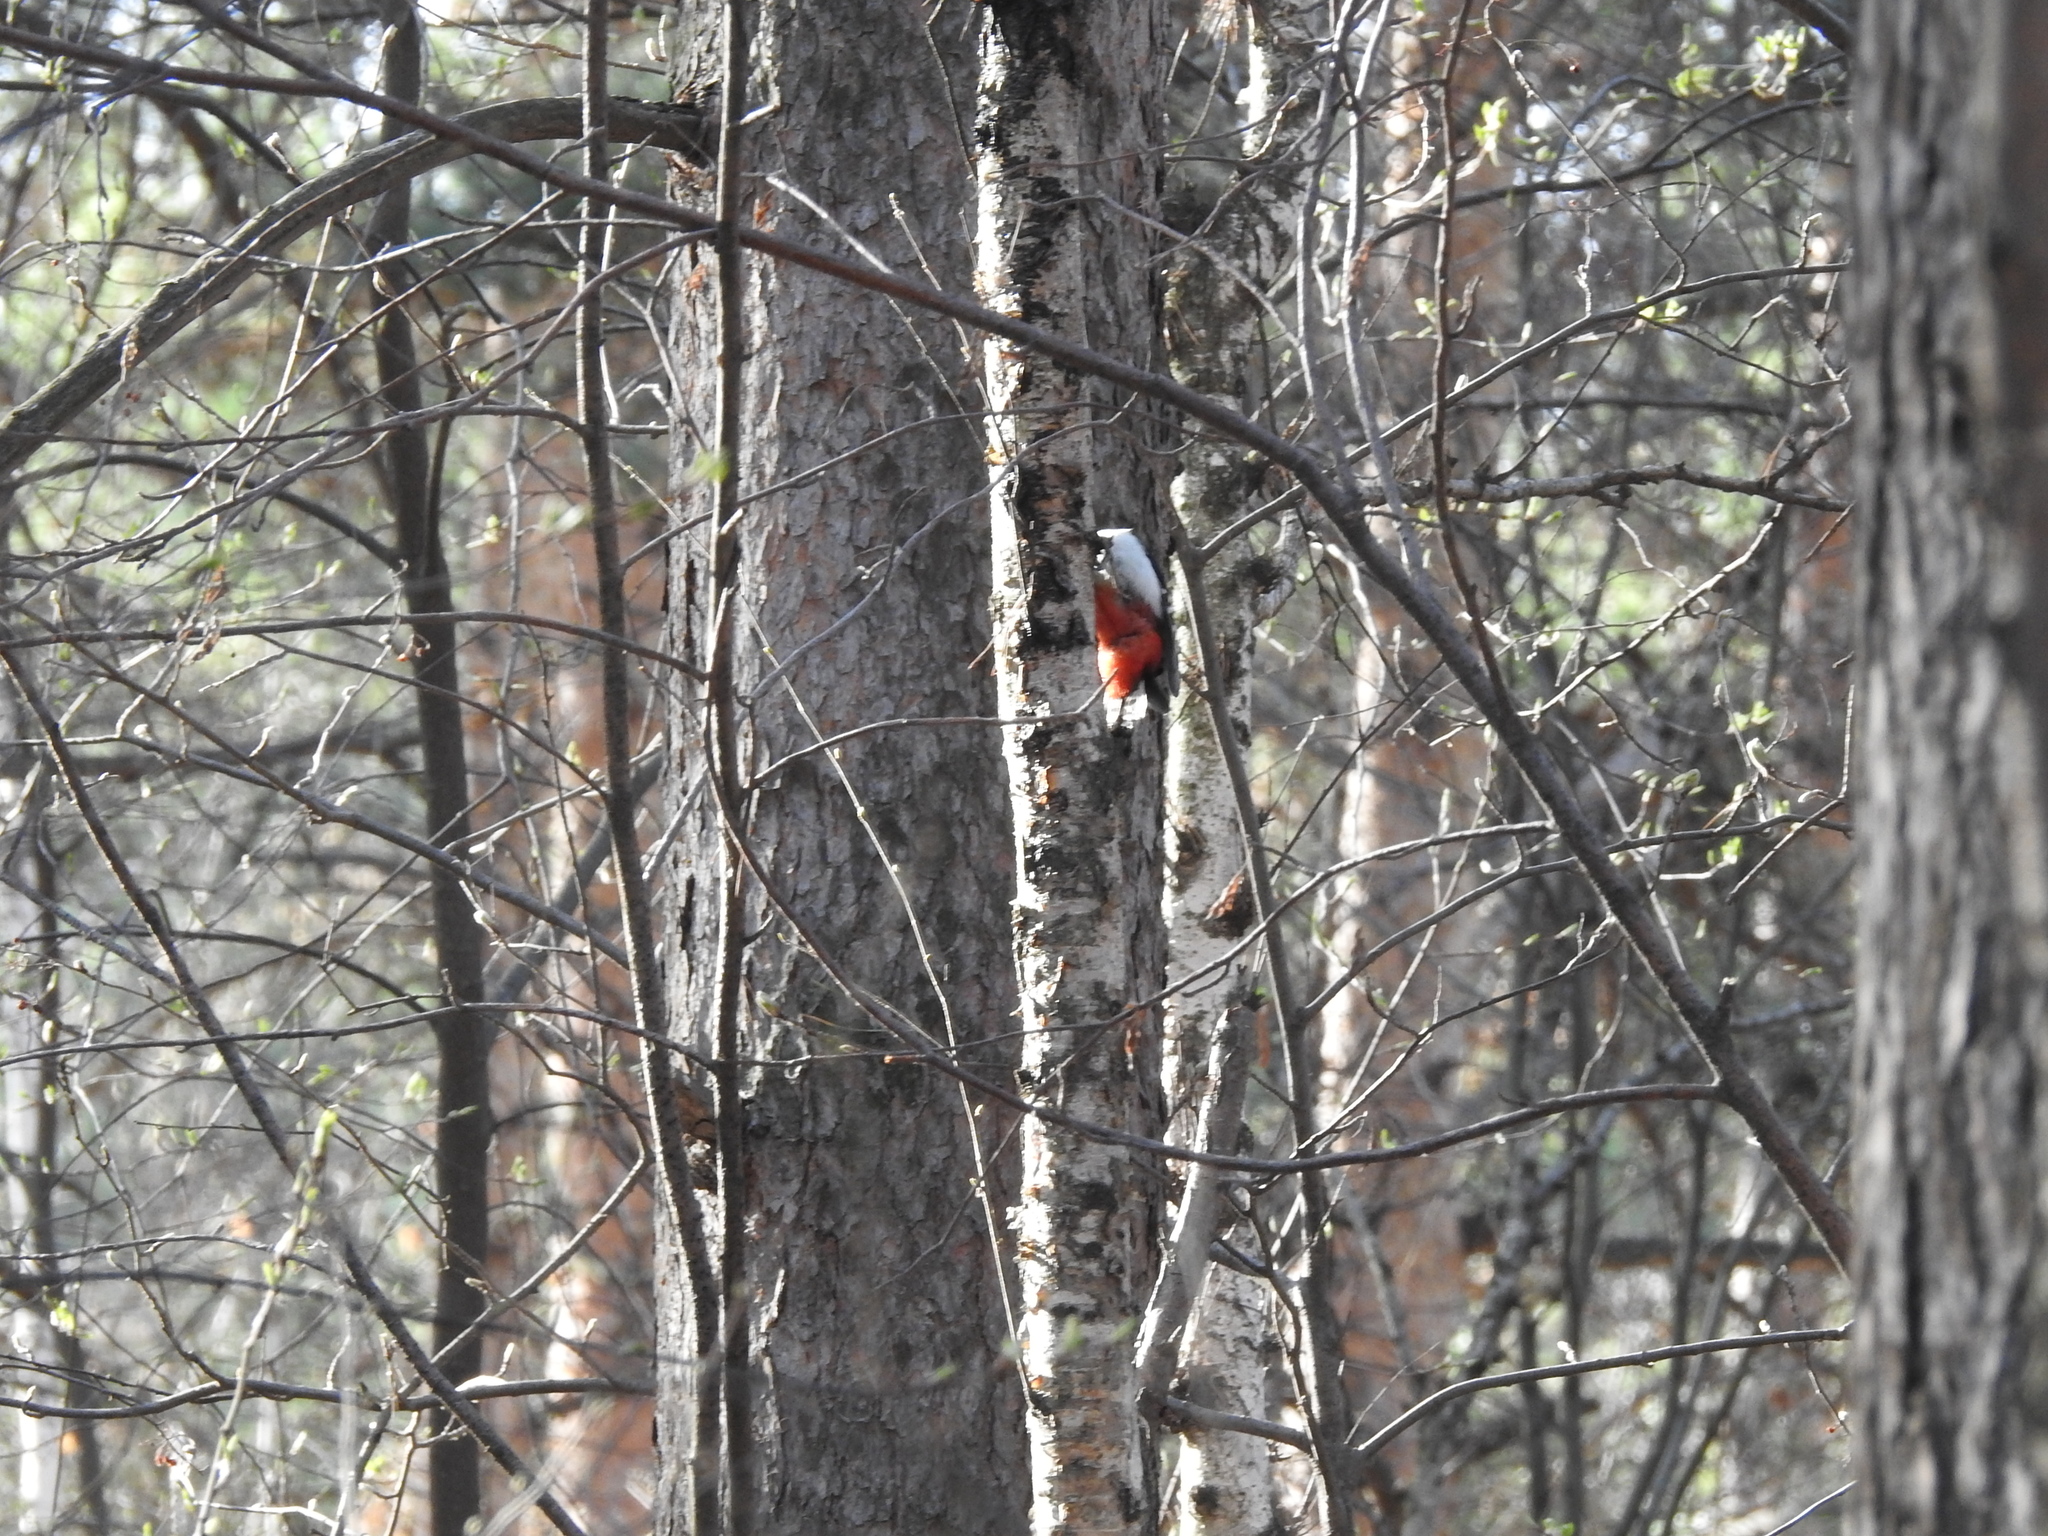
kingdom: Animalia
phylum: Chordata
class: Aves
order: Piciformes
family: Picidae
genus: Dendrocopos
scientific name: Dendrocopos major
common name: Great spotted woodpecker
